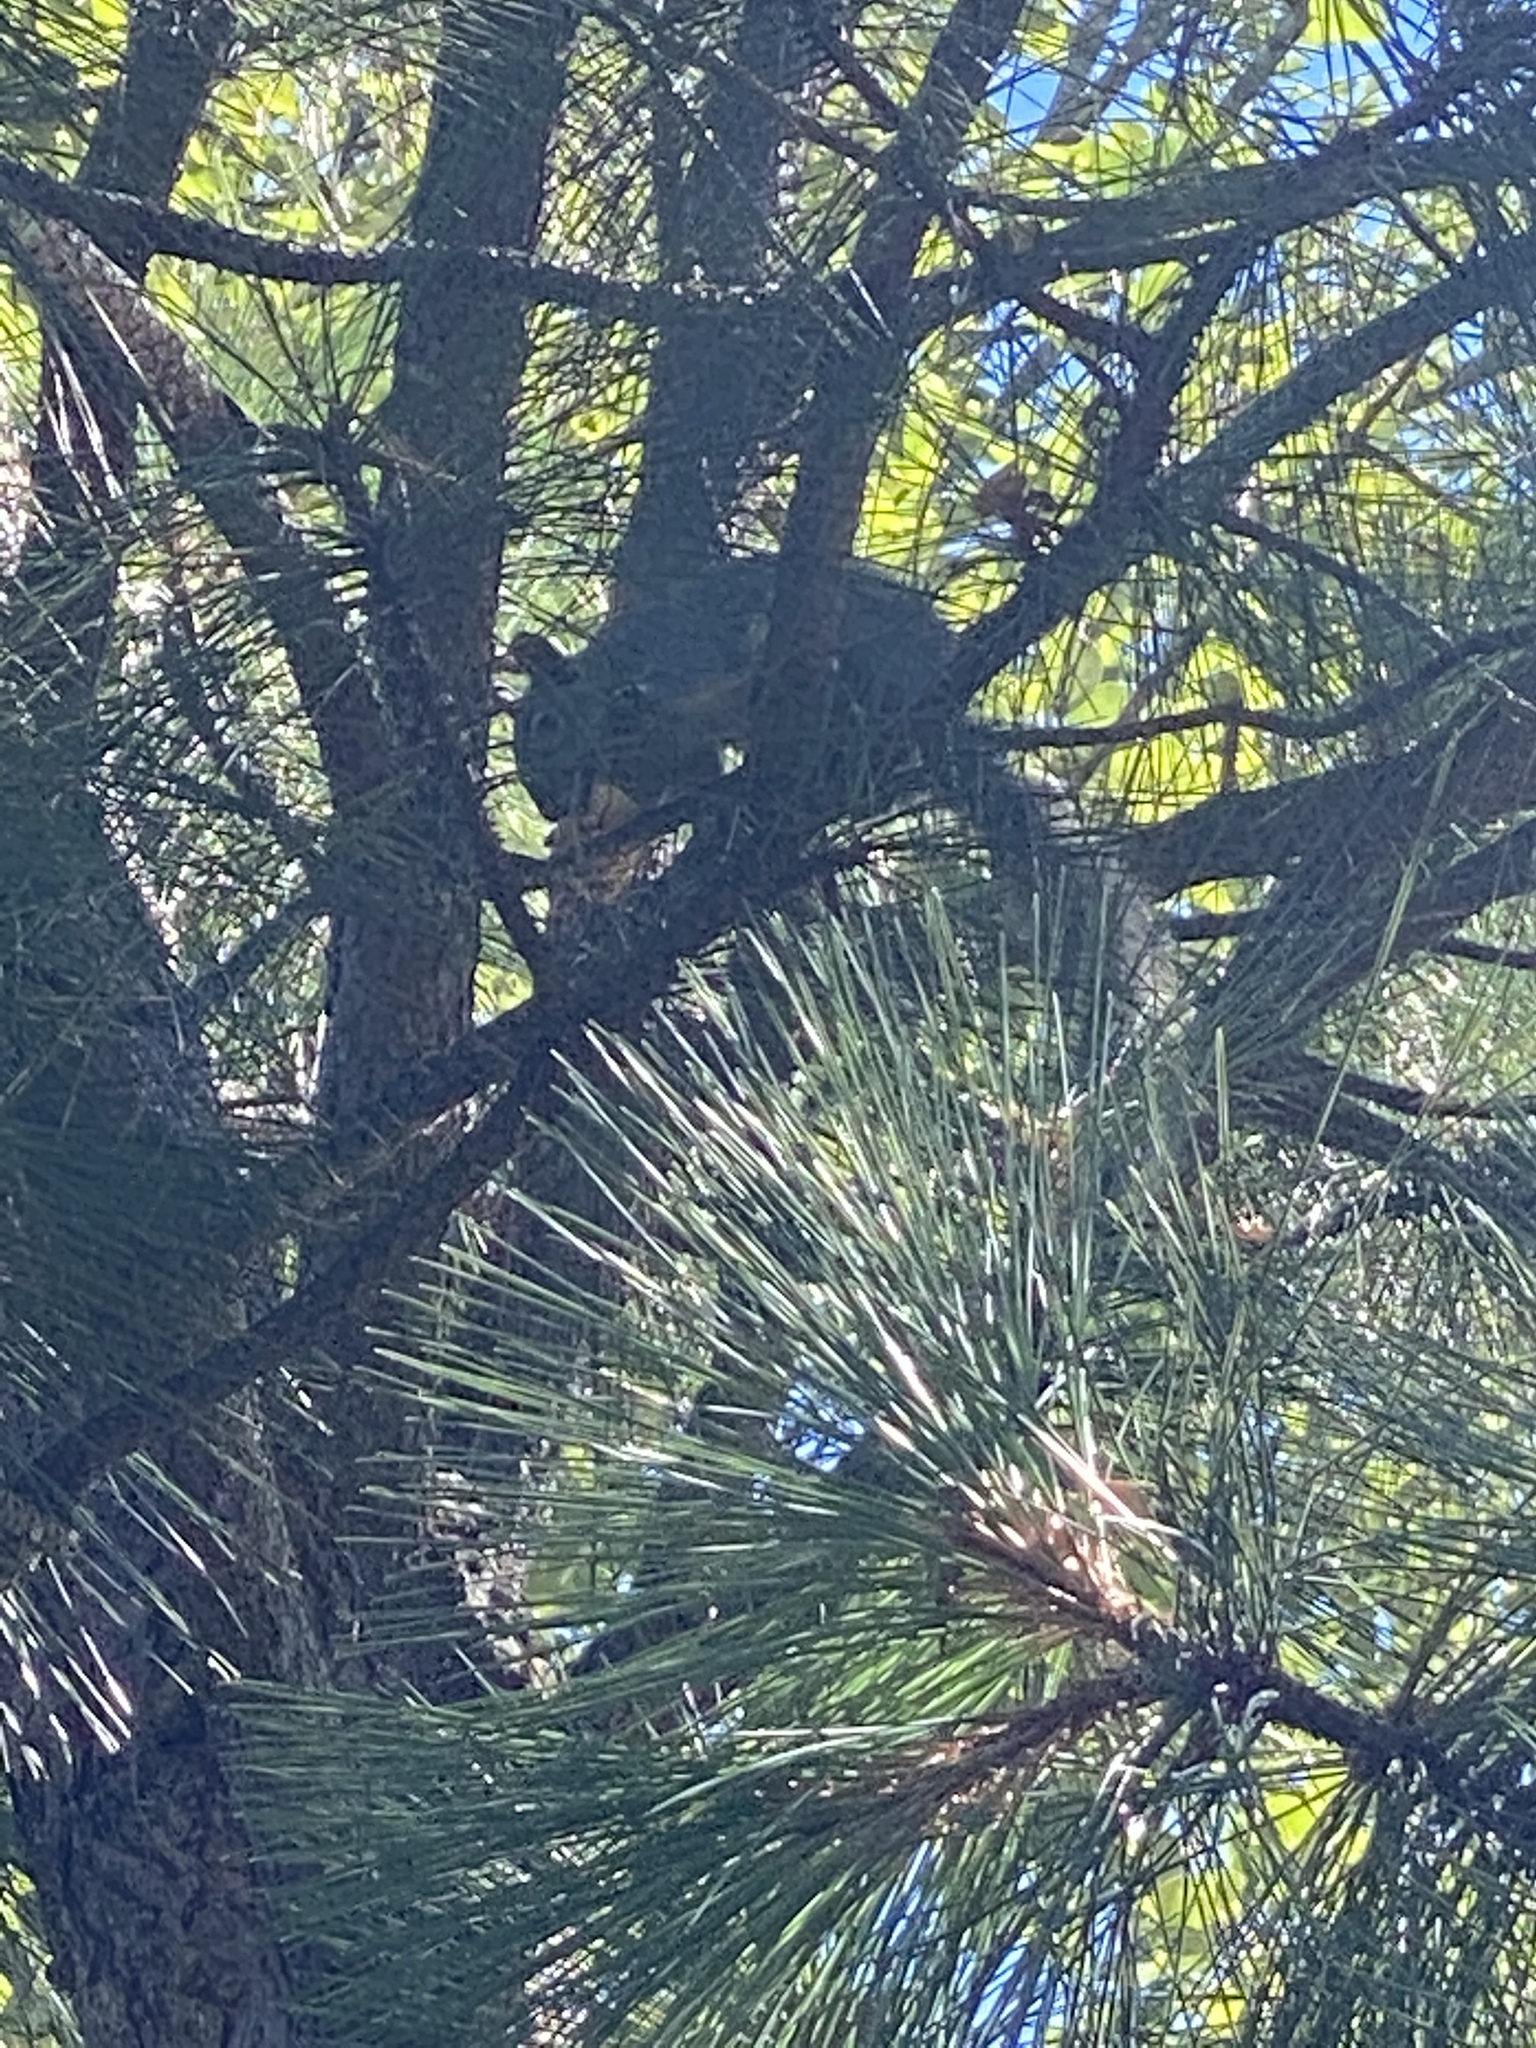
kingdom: Animalia
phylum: Chordata
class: Mammalia
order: Rodentia
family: Sciuridae
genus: Sciurus
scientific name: Sciurus griseus
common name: Western gray squirrel
